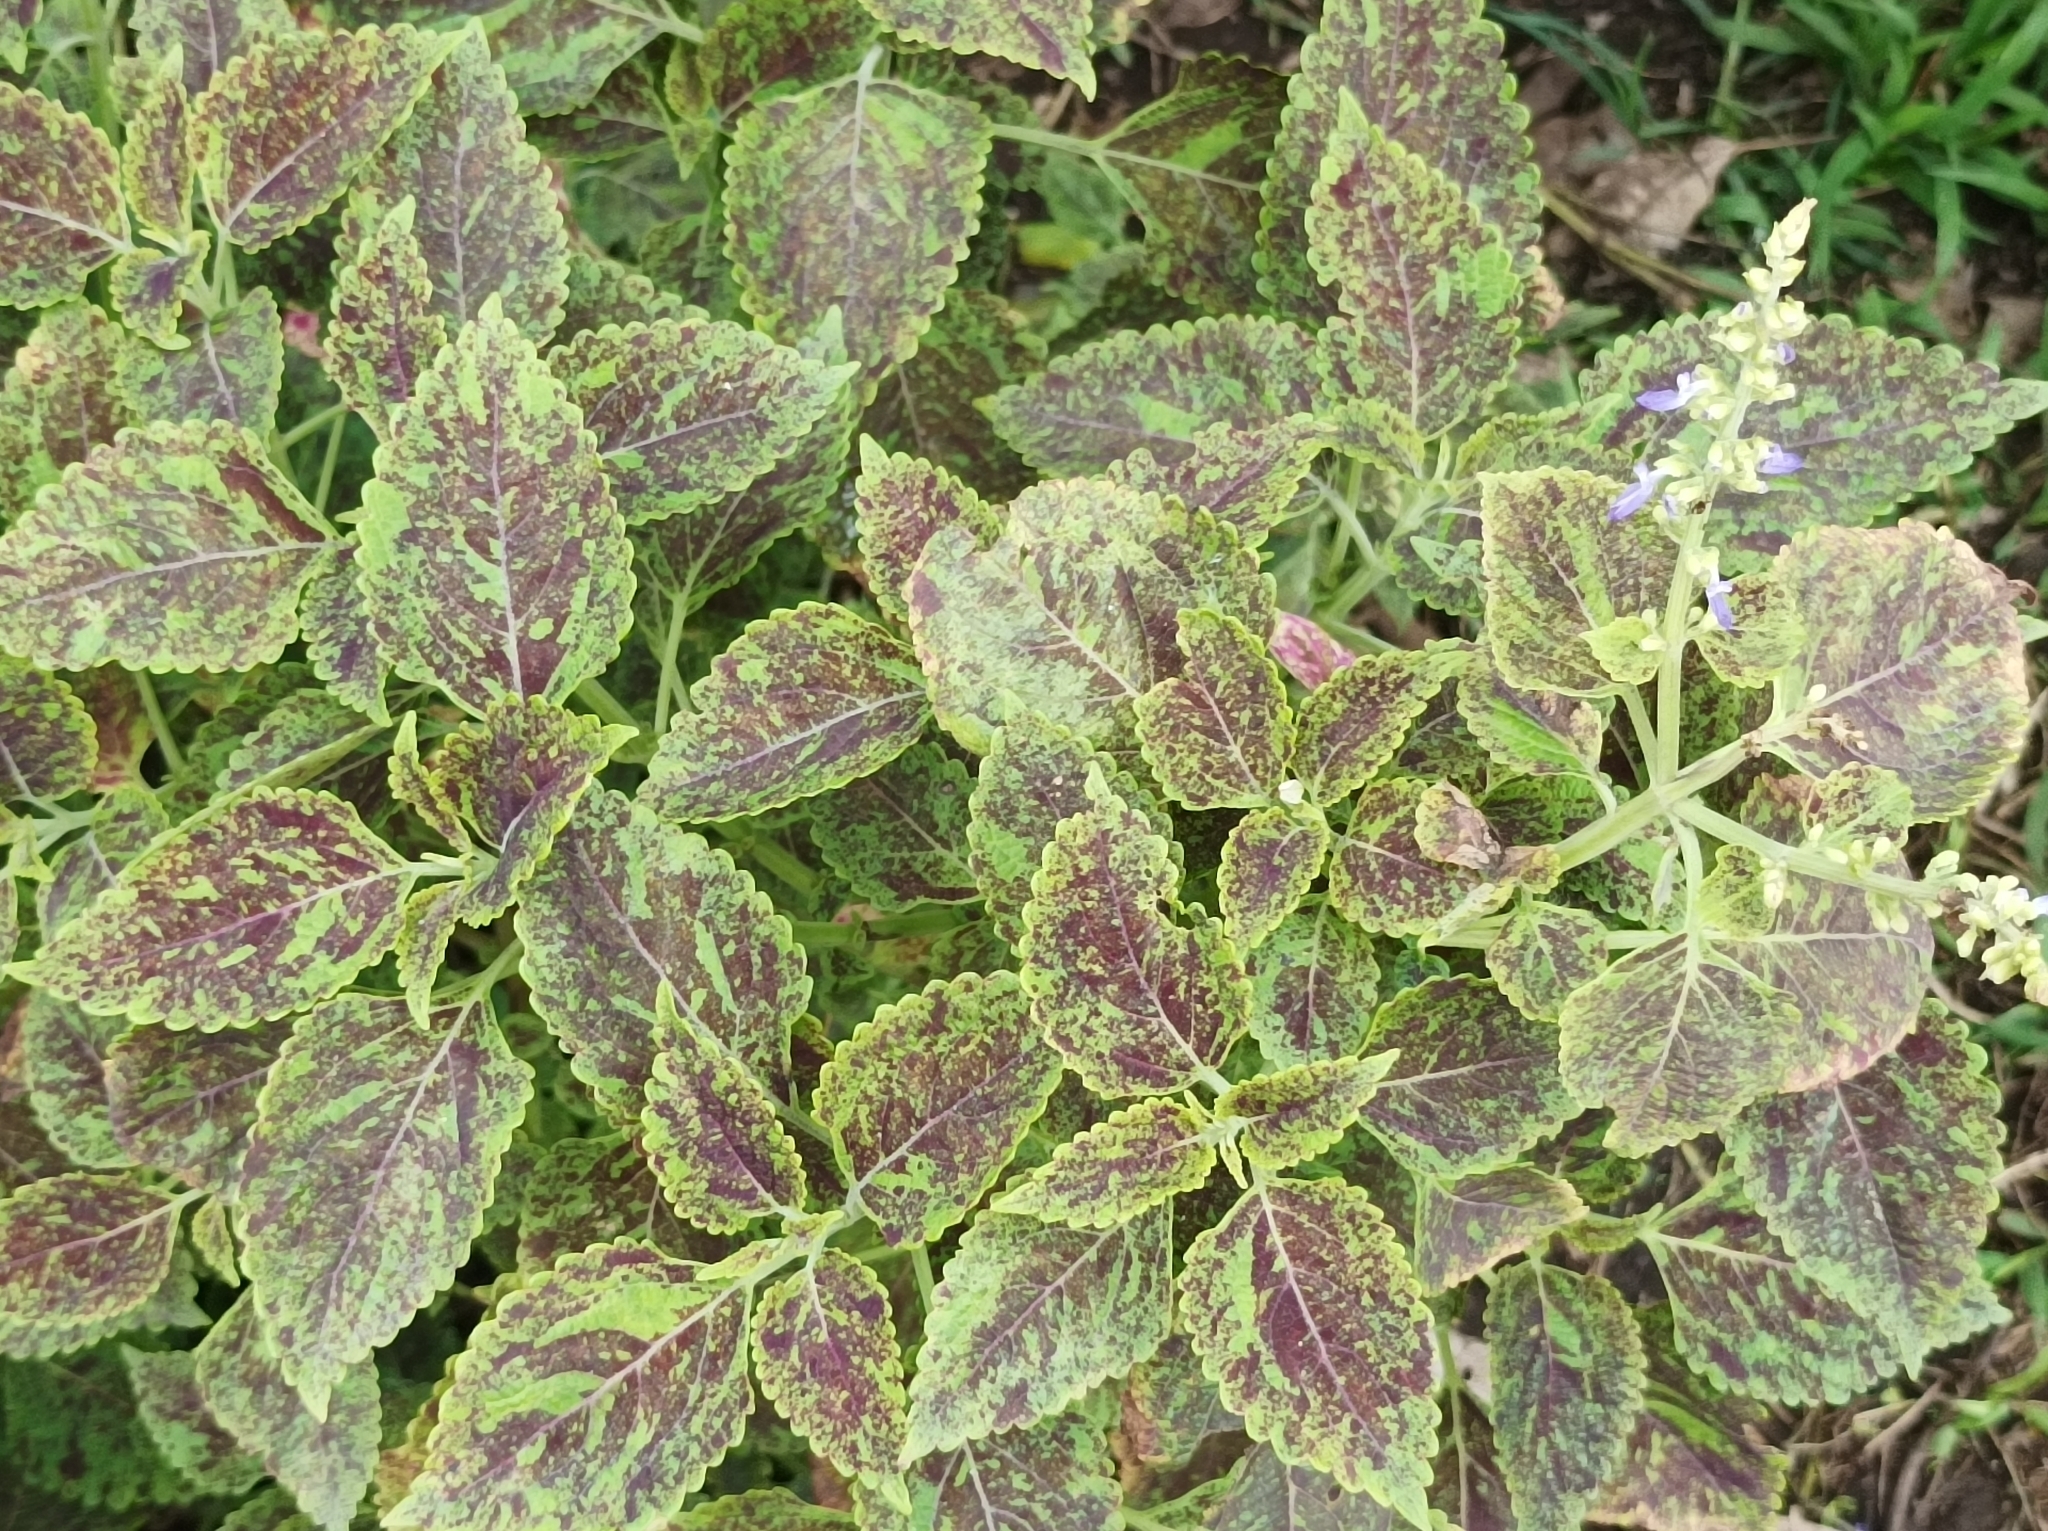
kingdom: Plantae
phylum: Tracheophyta
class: Magnoliopsida
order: Lamiales
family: Lamiaceae
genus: Coleus
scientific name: Coleus scutellarioides
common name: Coleus
